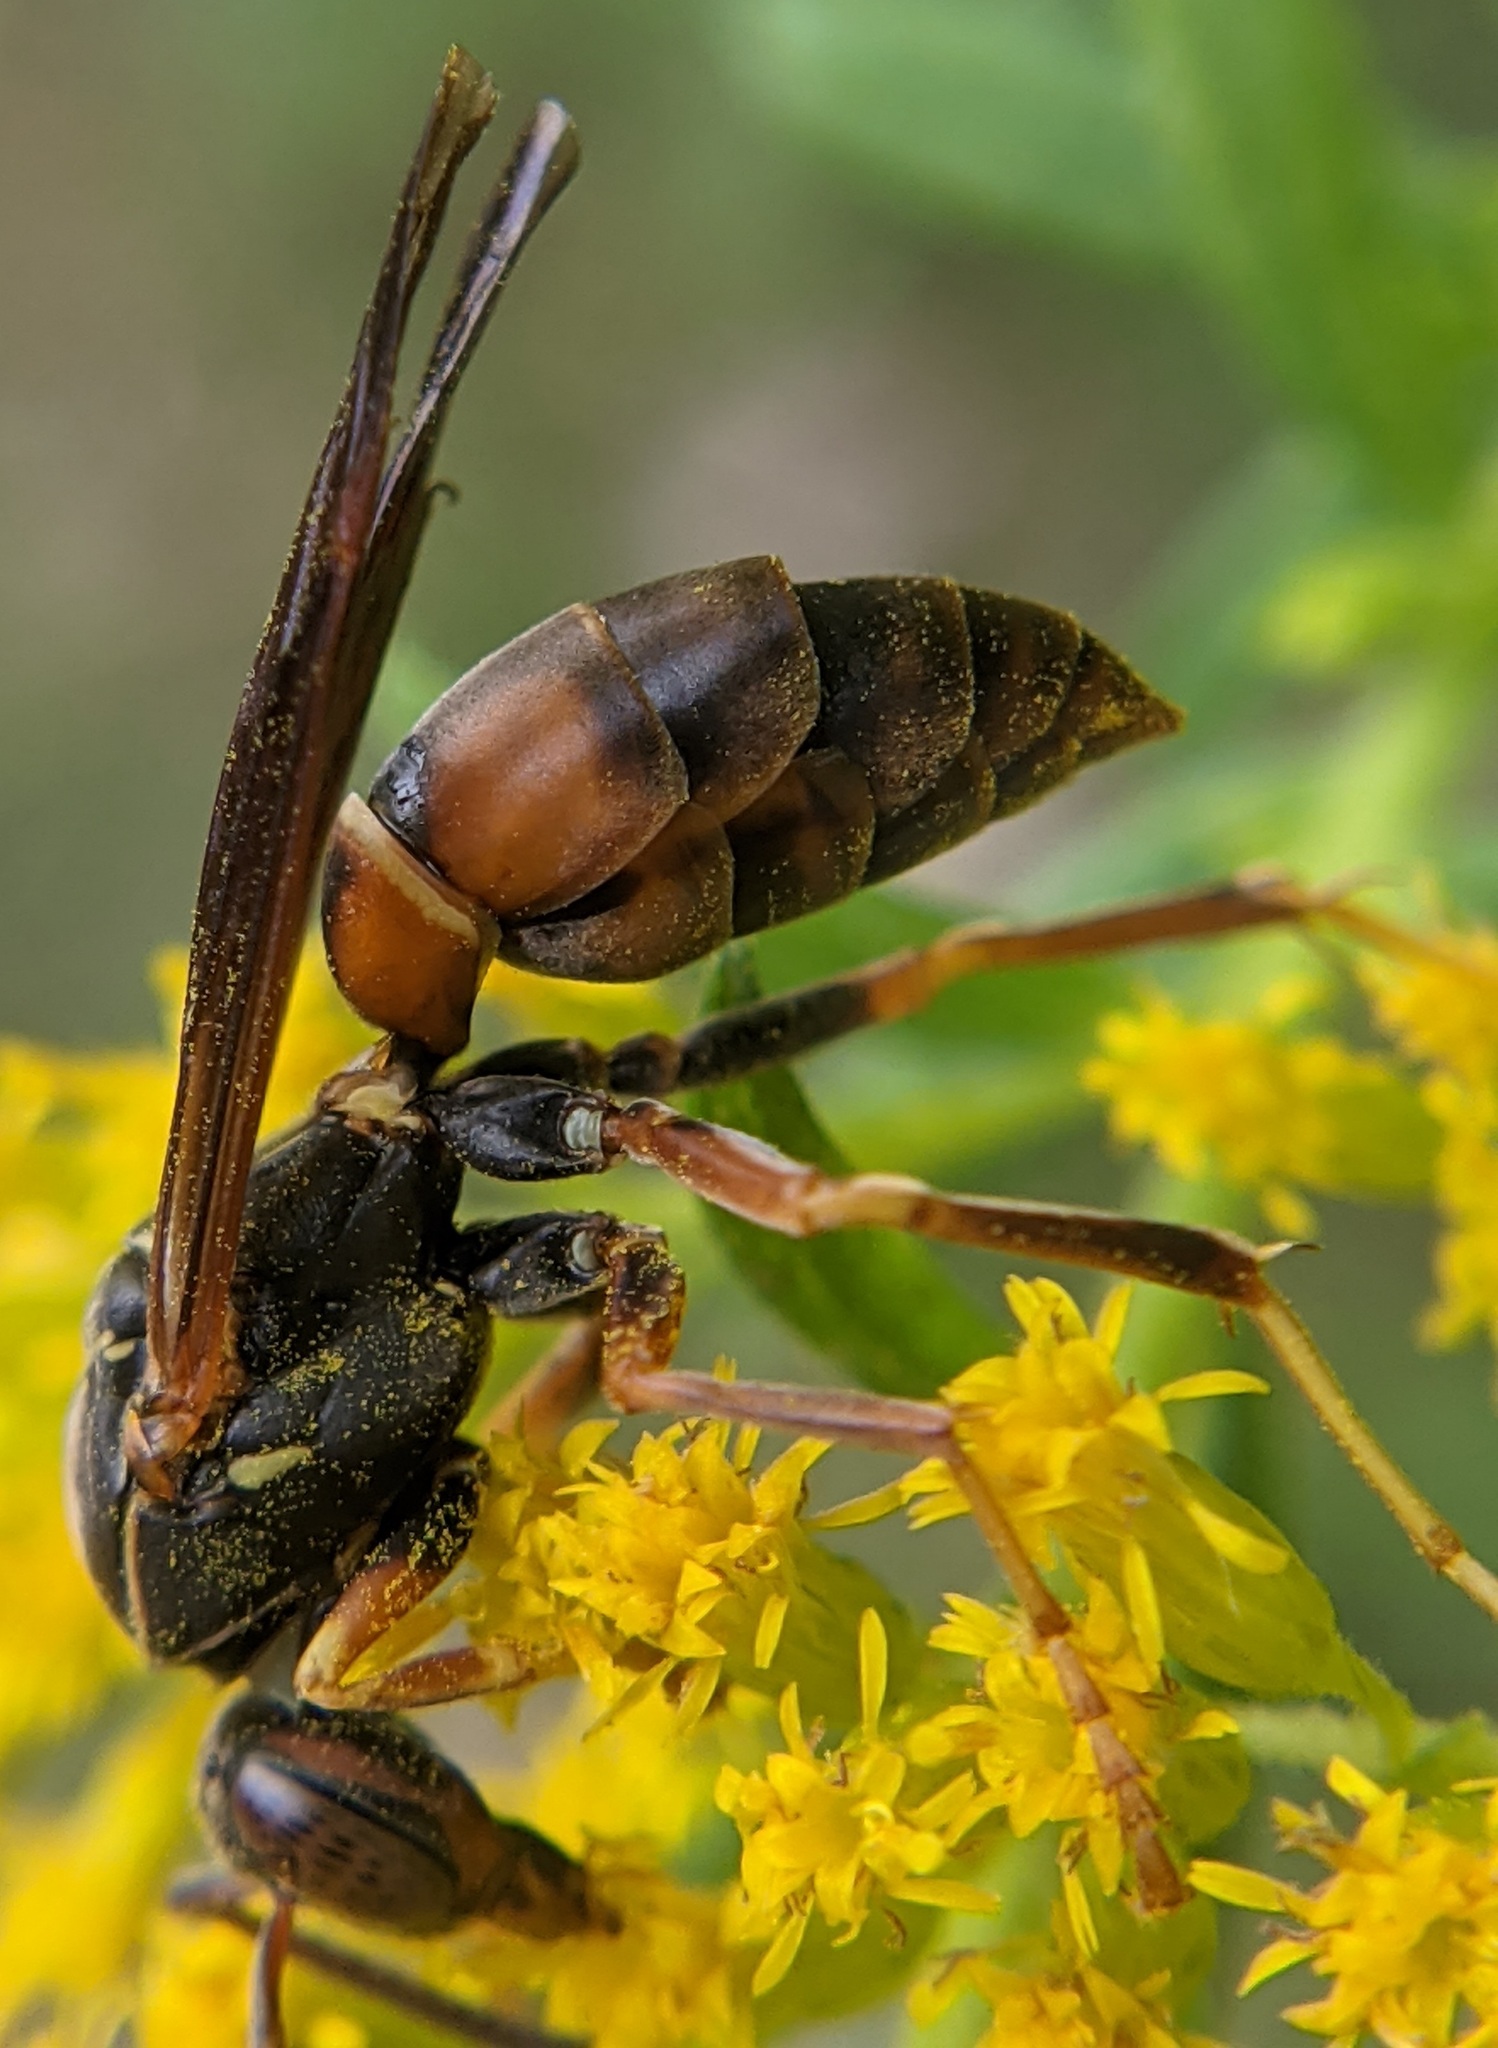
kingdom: Animalia
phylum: Arthropoda
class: Insecta
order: Hymenoptera
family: Eumenidae
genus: Polistes
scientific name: Polistes fuscatus
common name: Dark paper wasp
